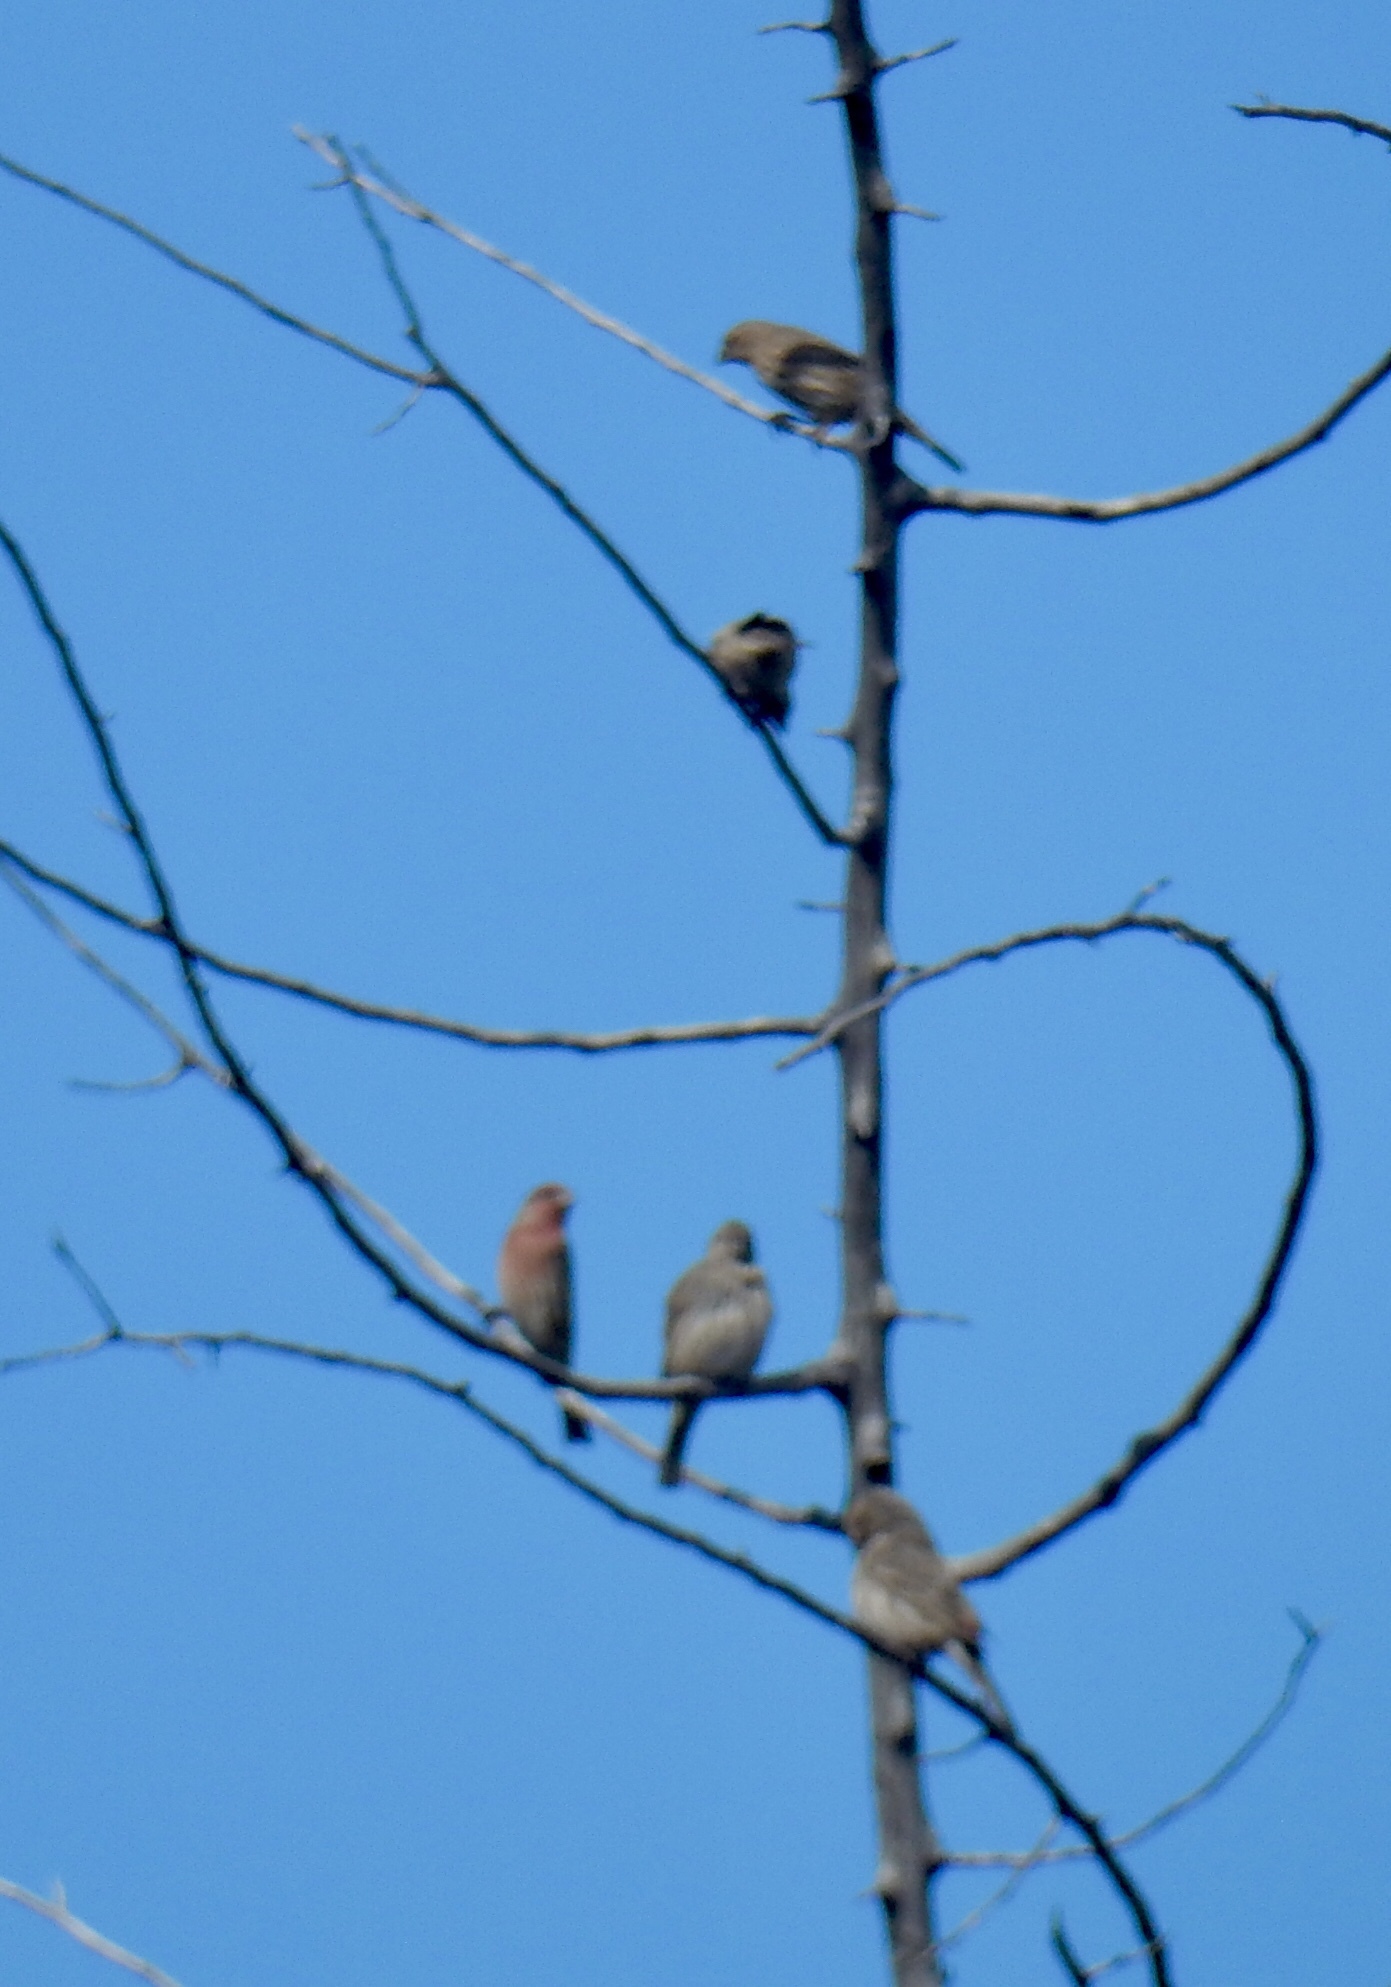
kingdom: Animalia
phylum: Chordata
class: Aves
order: Passeriformes
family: Fringillidae
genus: Haemorhous
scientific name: Haemorhous mexicanus
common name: House finch
